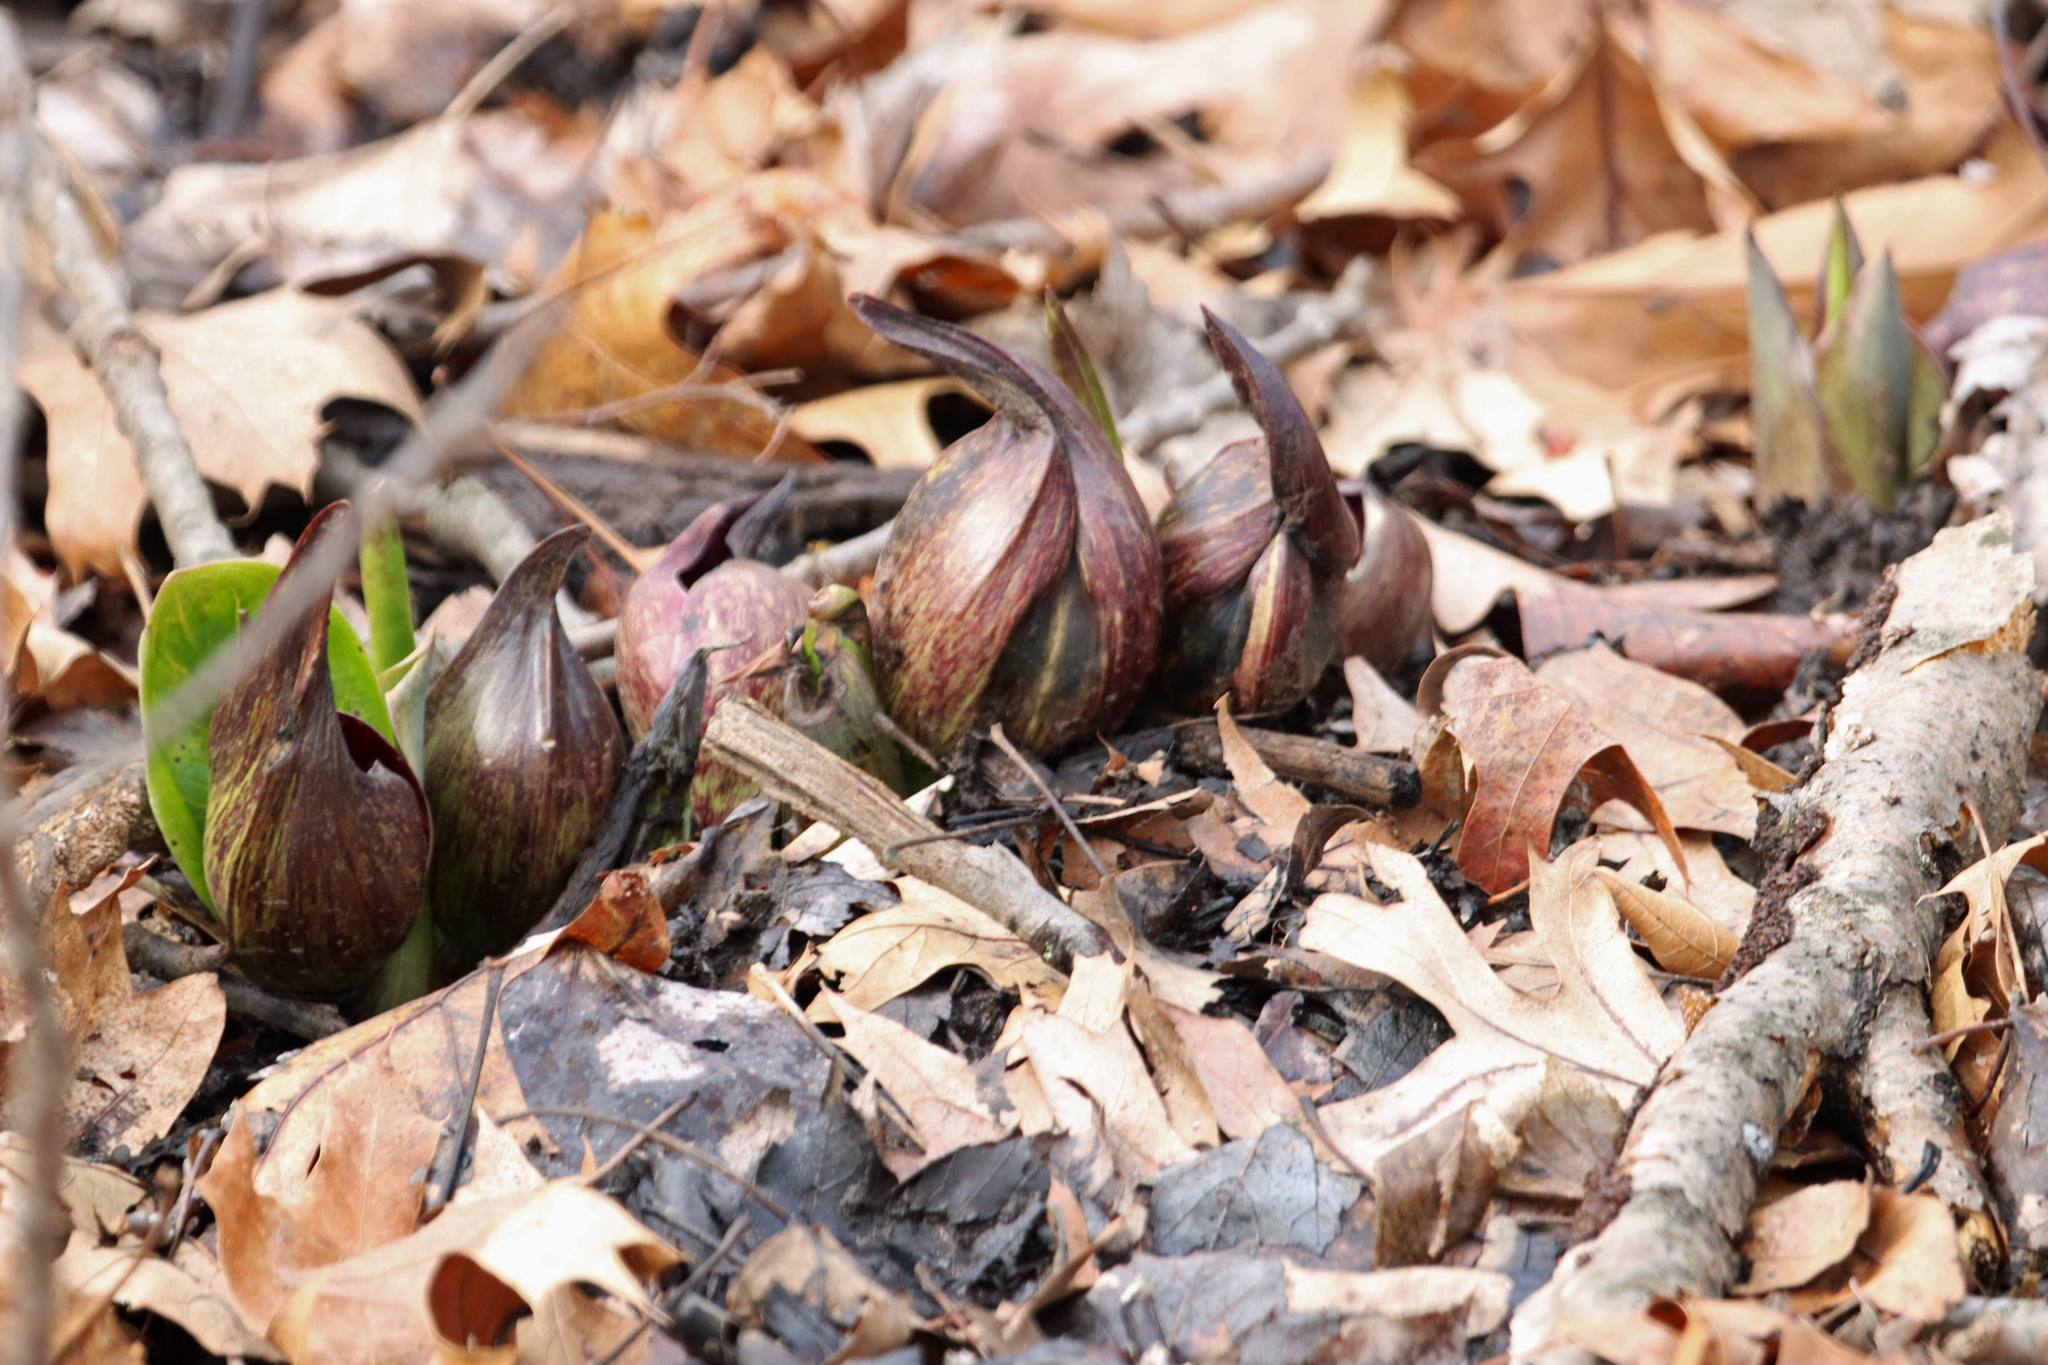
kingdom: Plantae
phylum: Tracheophyta
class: Liliopsida
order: Alismatales
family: Araceae
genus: Symplocarpus
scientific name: Symplocarpus foetidus
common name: Eastern skunk cabbage
